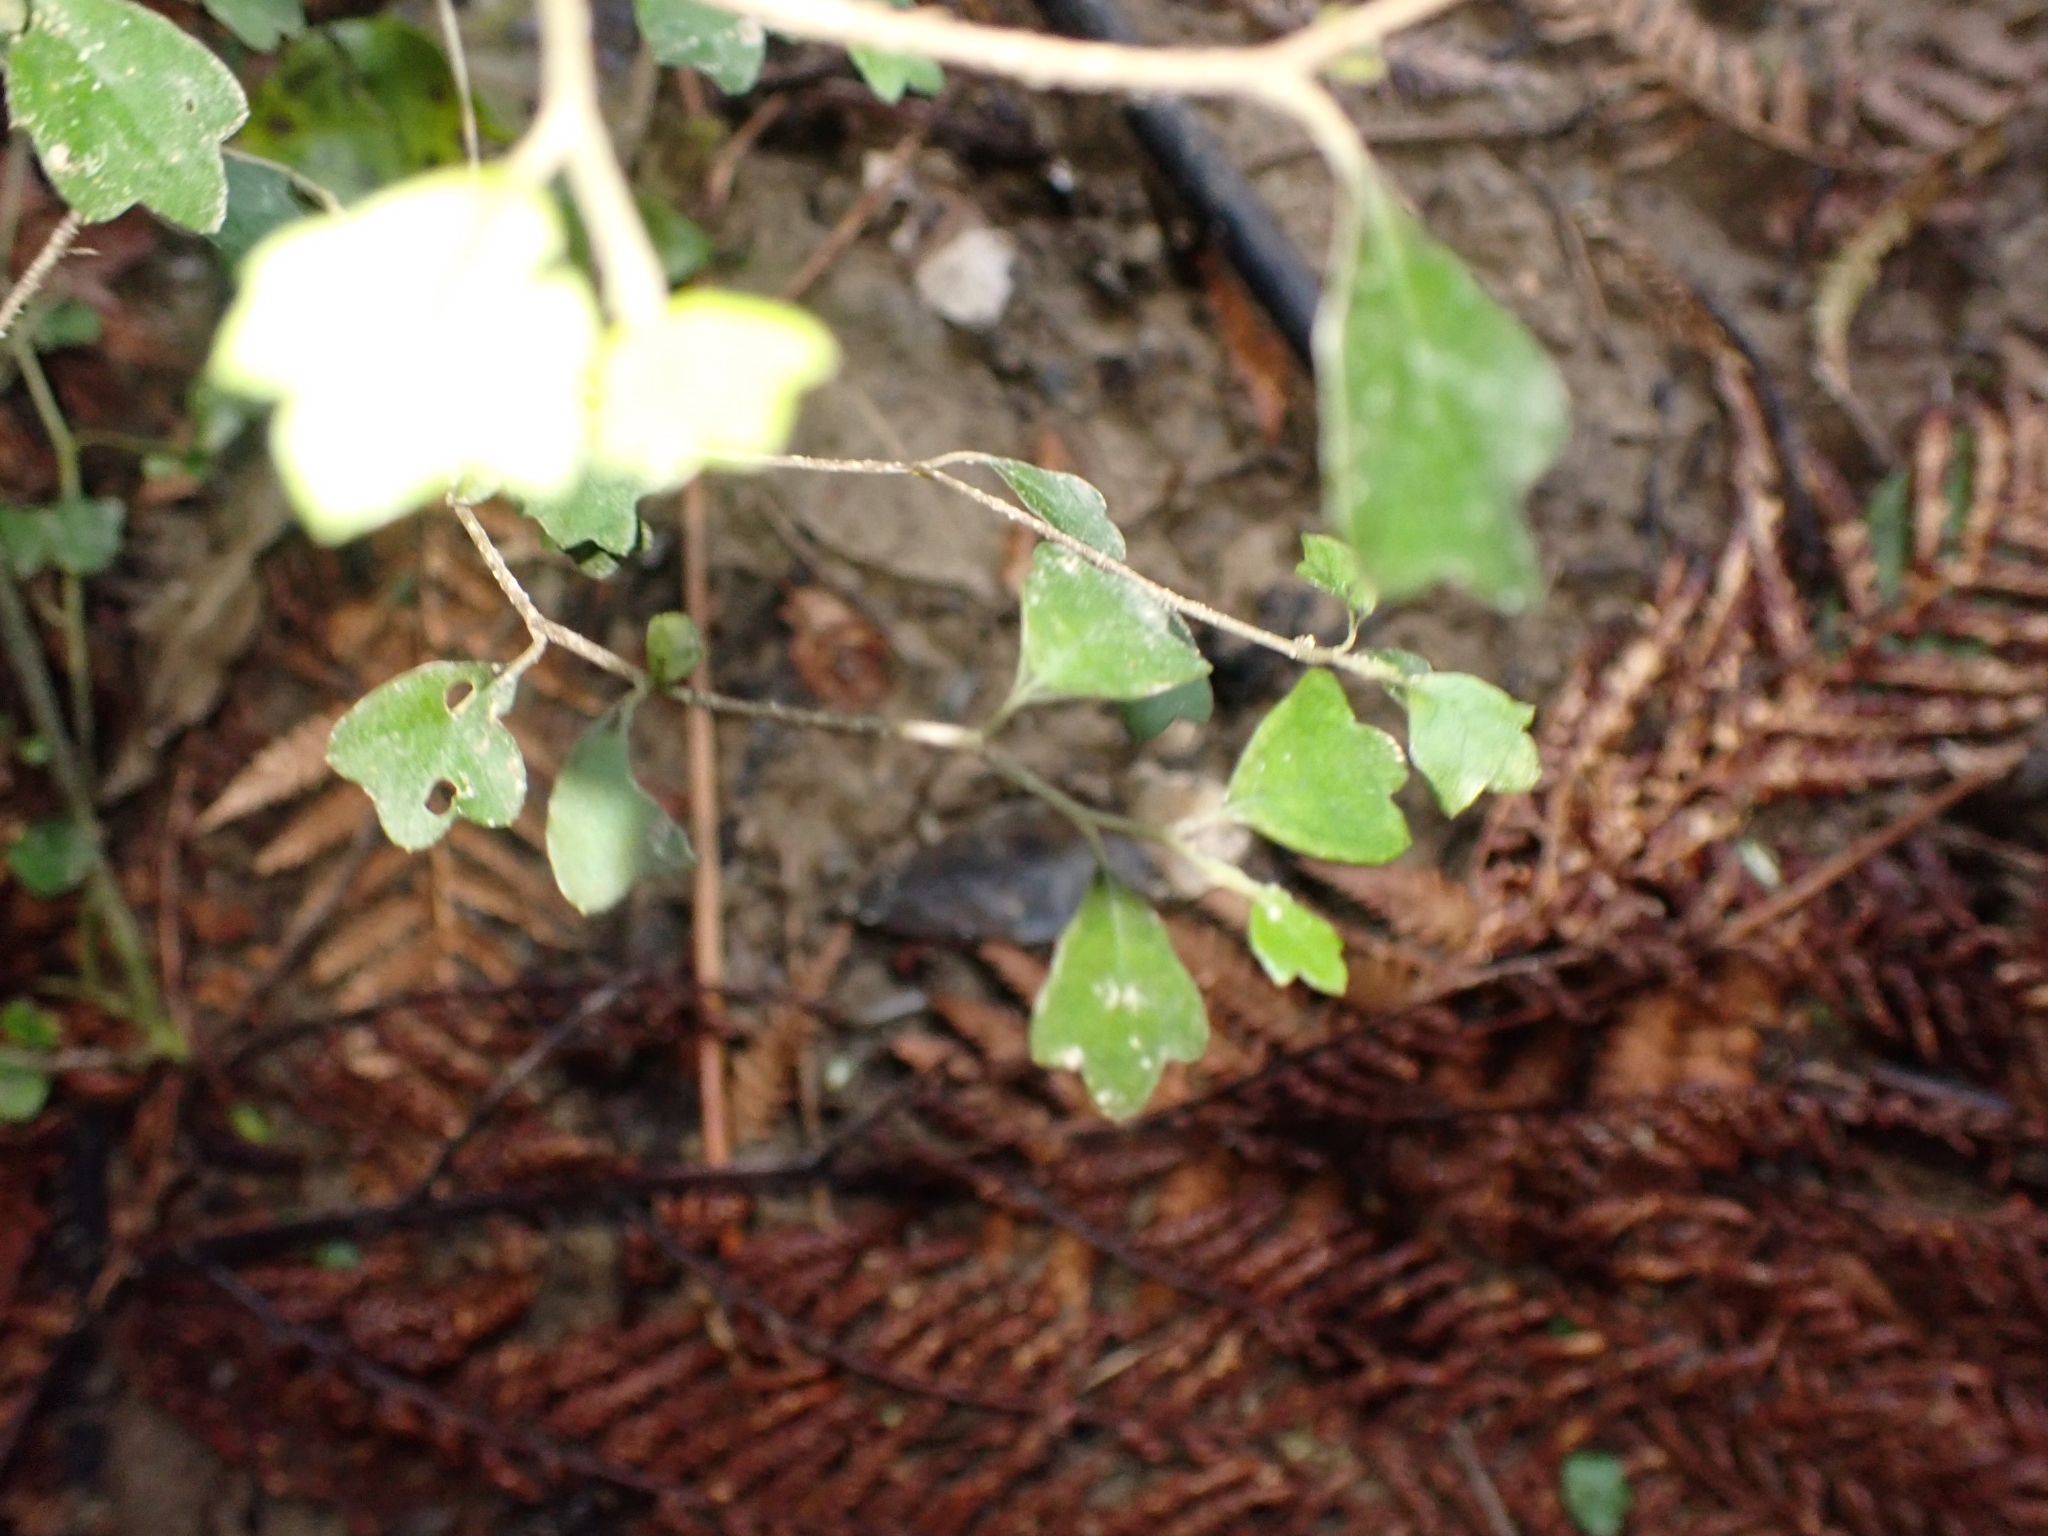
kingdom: Plantae
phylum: Tracheophyta
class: Magnoliopsida
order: Apiales
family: Pennantiaceae
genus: Pennantia
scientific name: Pennantia corymbosa
